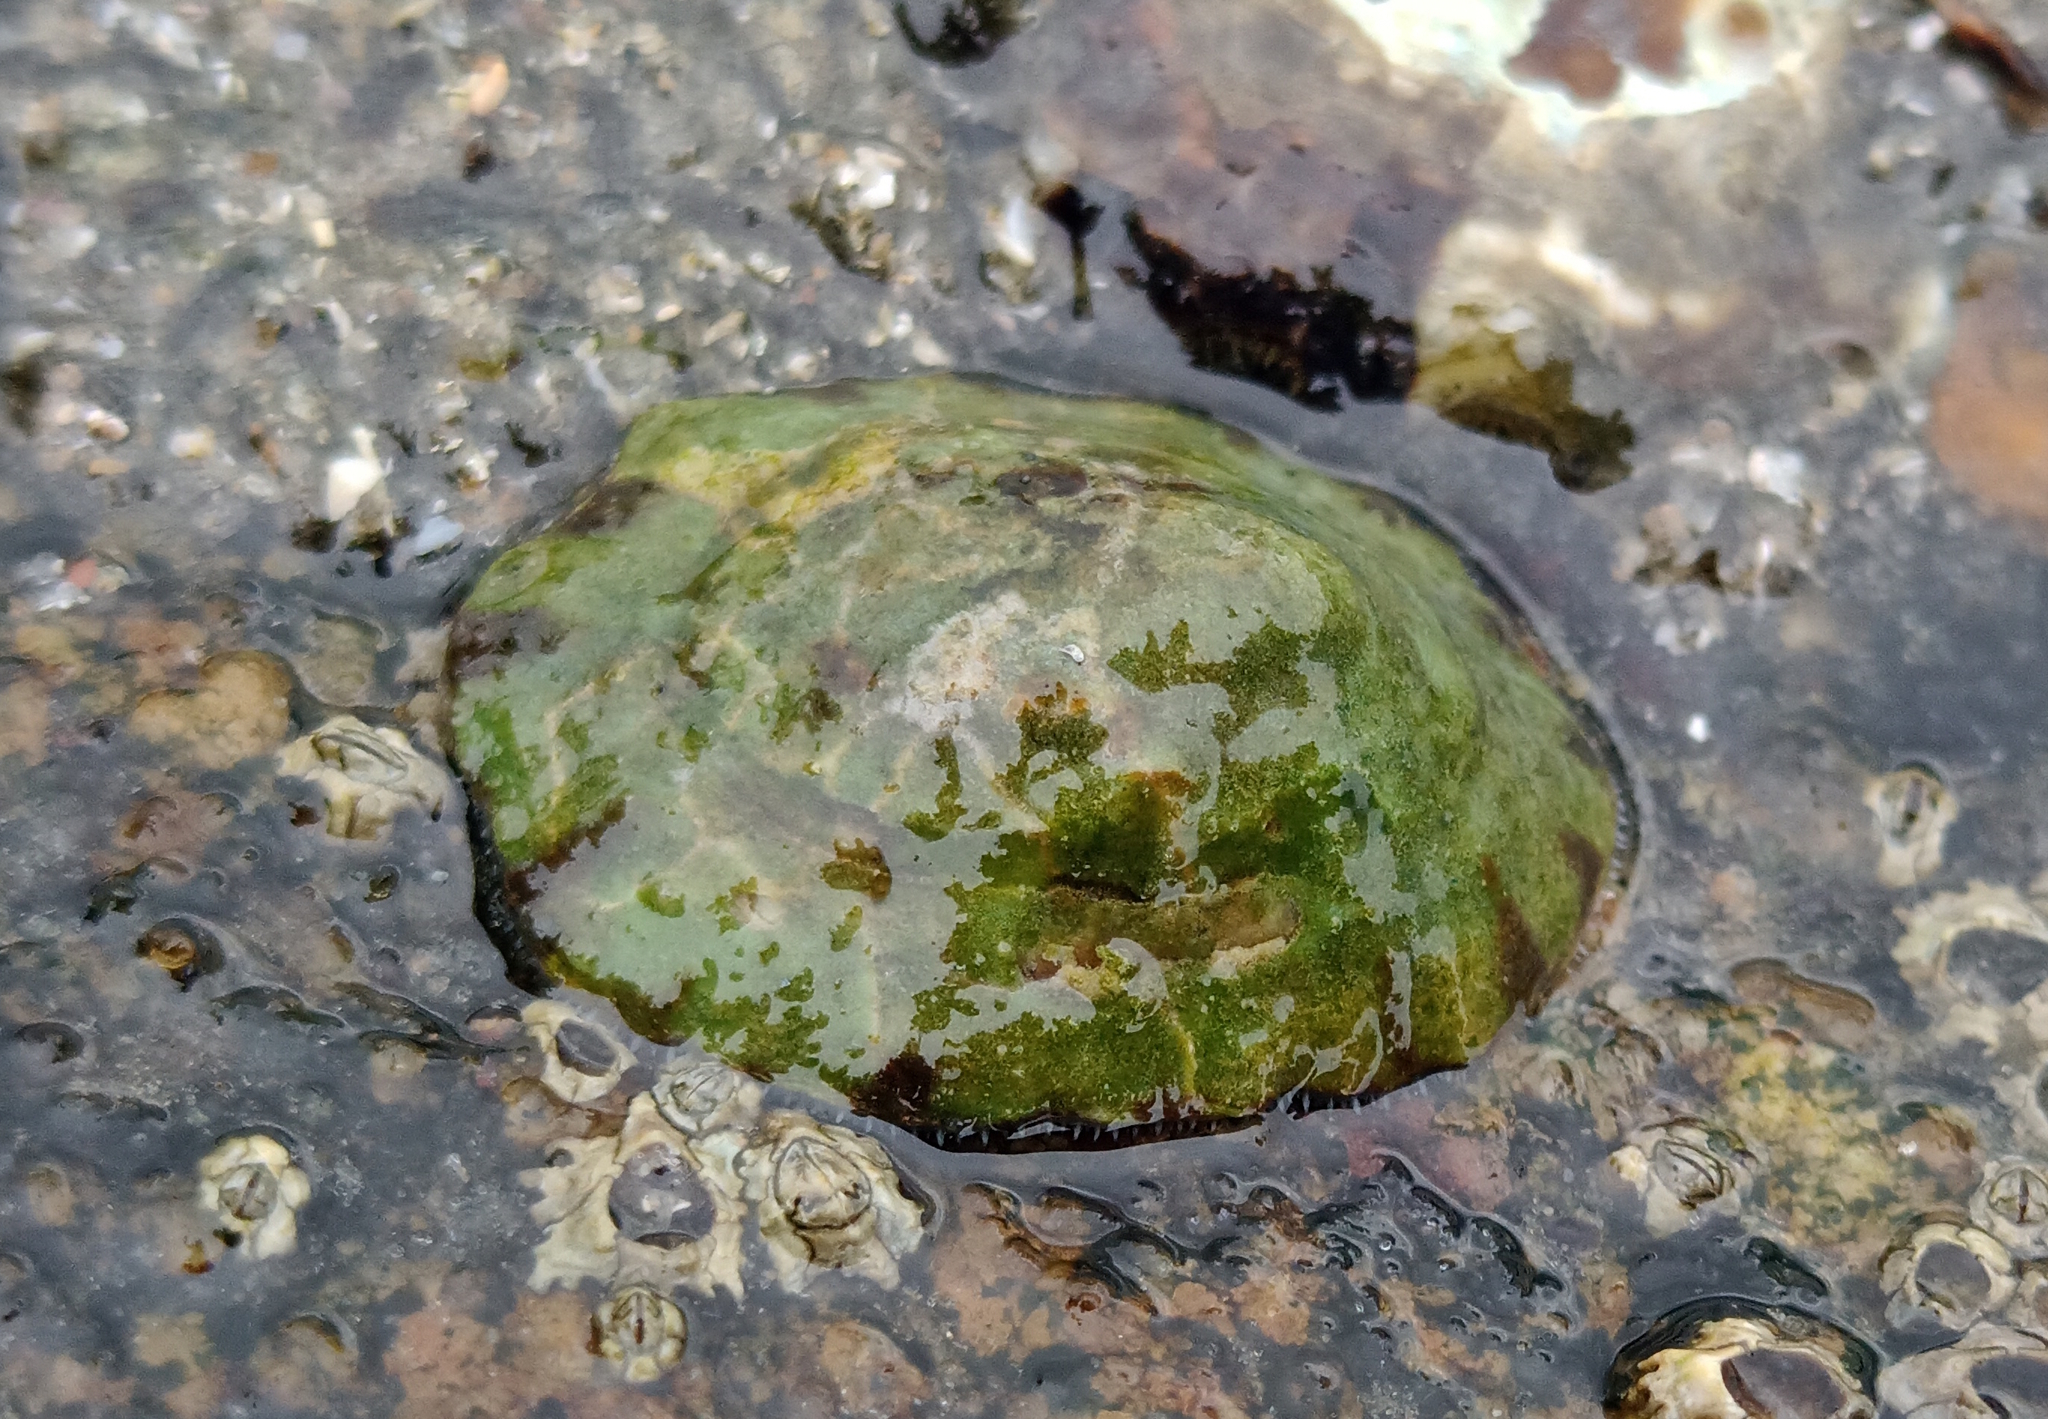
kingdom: Animalia
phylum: Mollusca
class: Gastropoda
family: Lottiidae
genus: Lottia
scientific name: Lottia subrugosa
